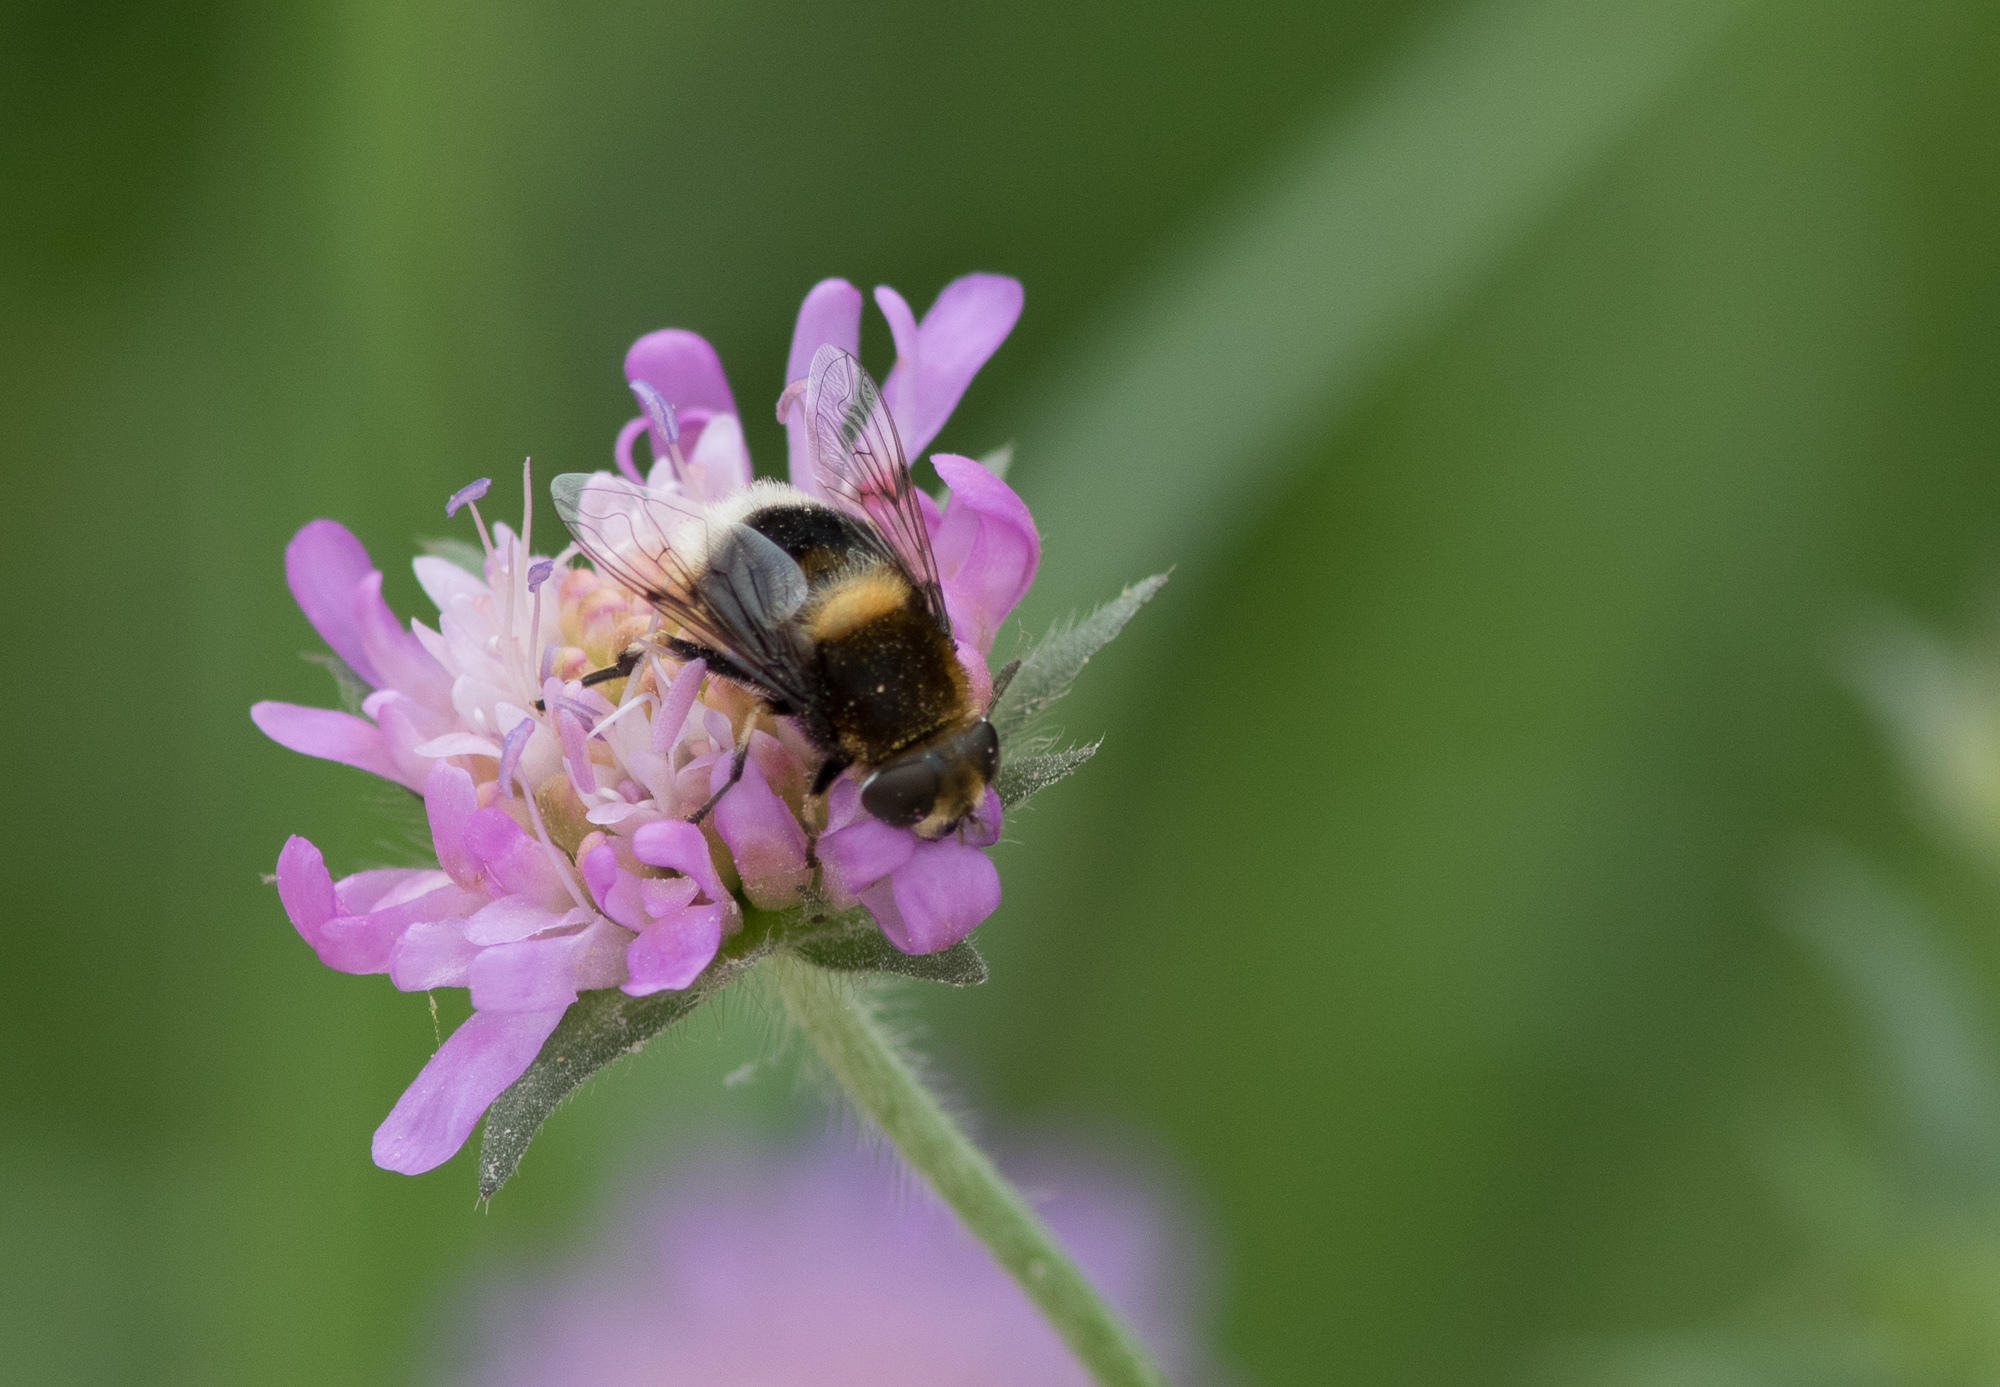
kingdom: Animalia
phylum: Arthropoda
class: Insecta
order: Diptera
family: Syrphidae
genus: Eristalis
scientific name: Eristalis intricaria
